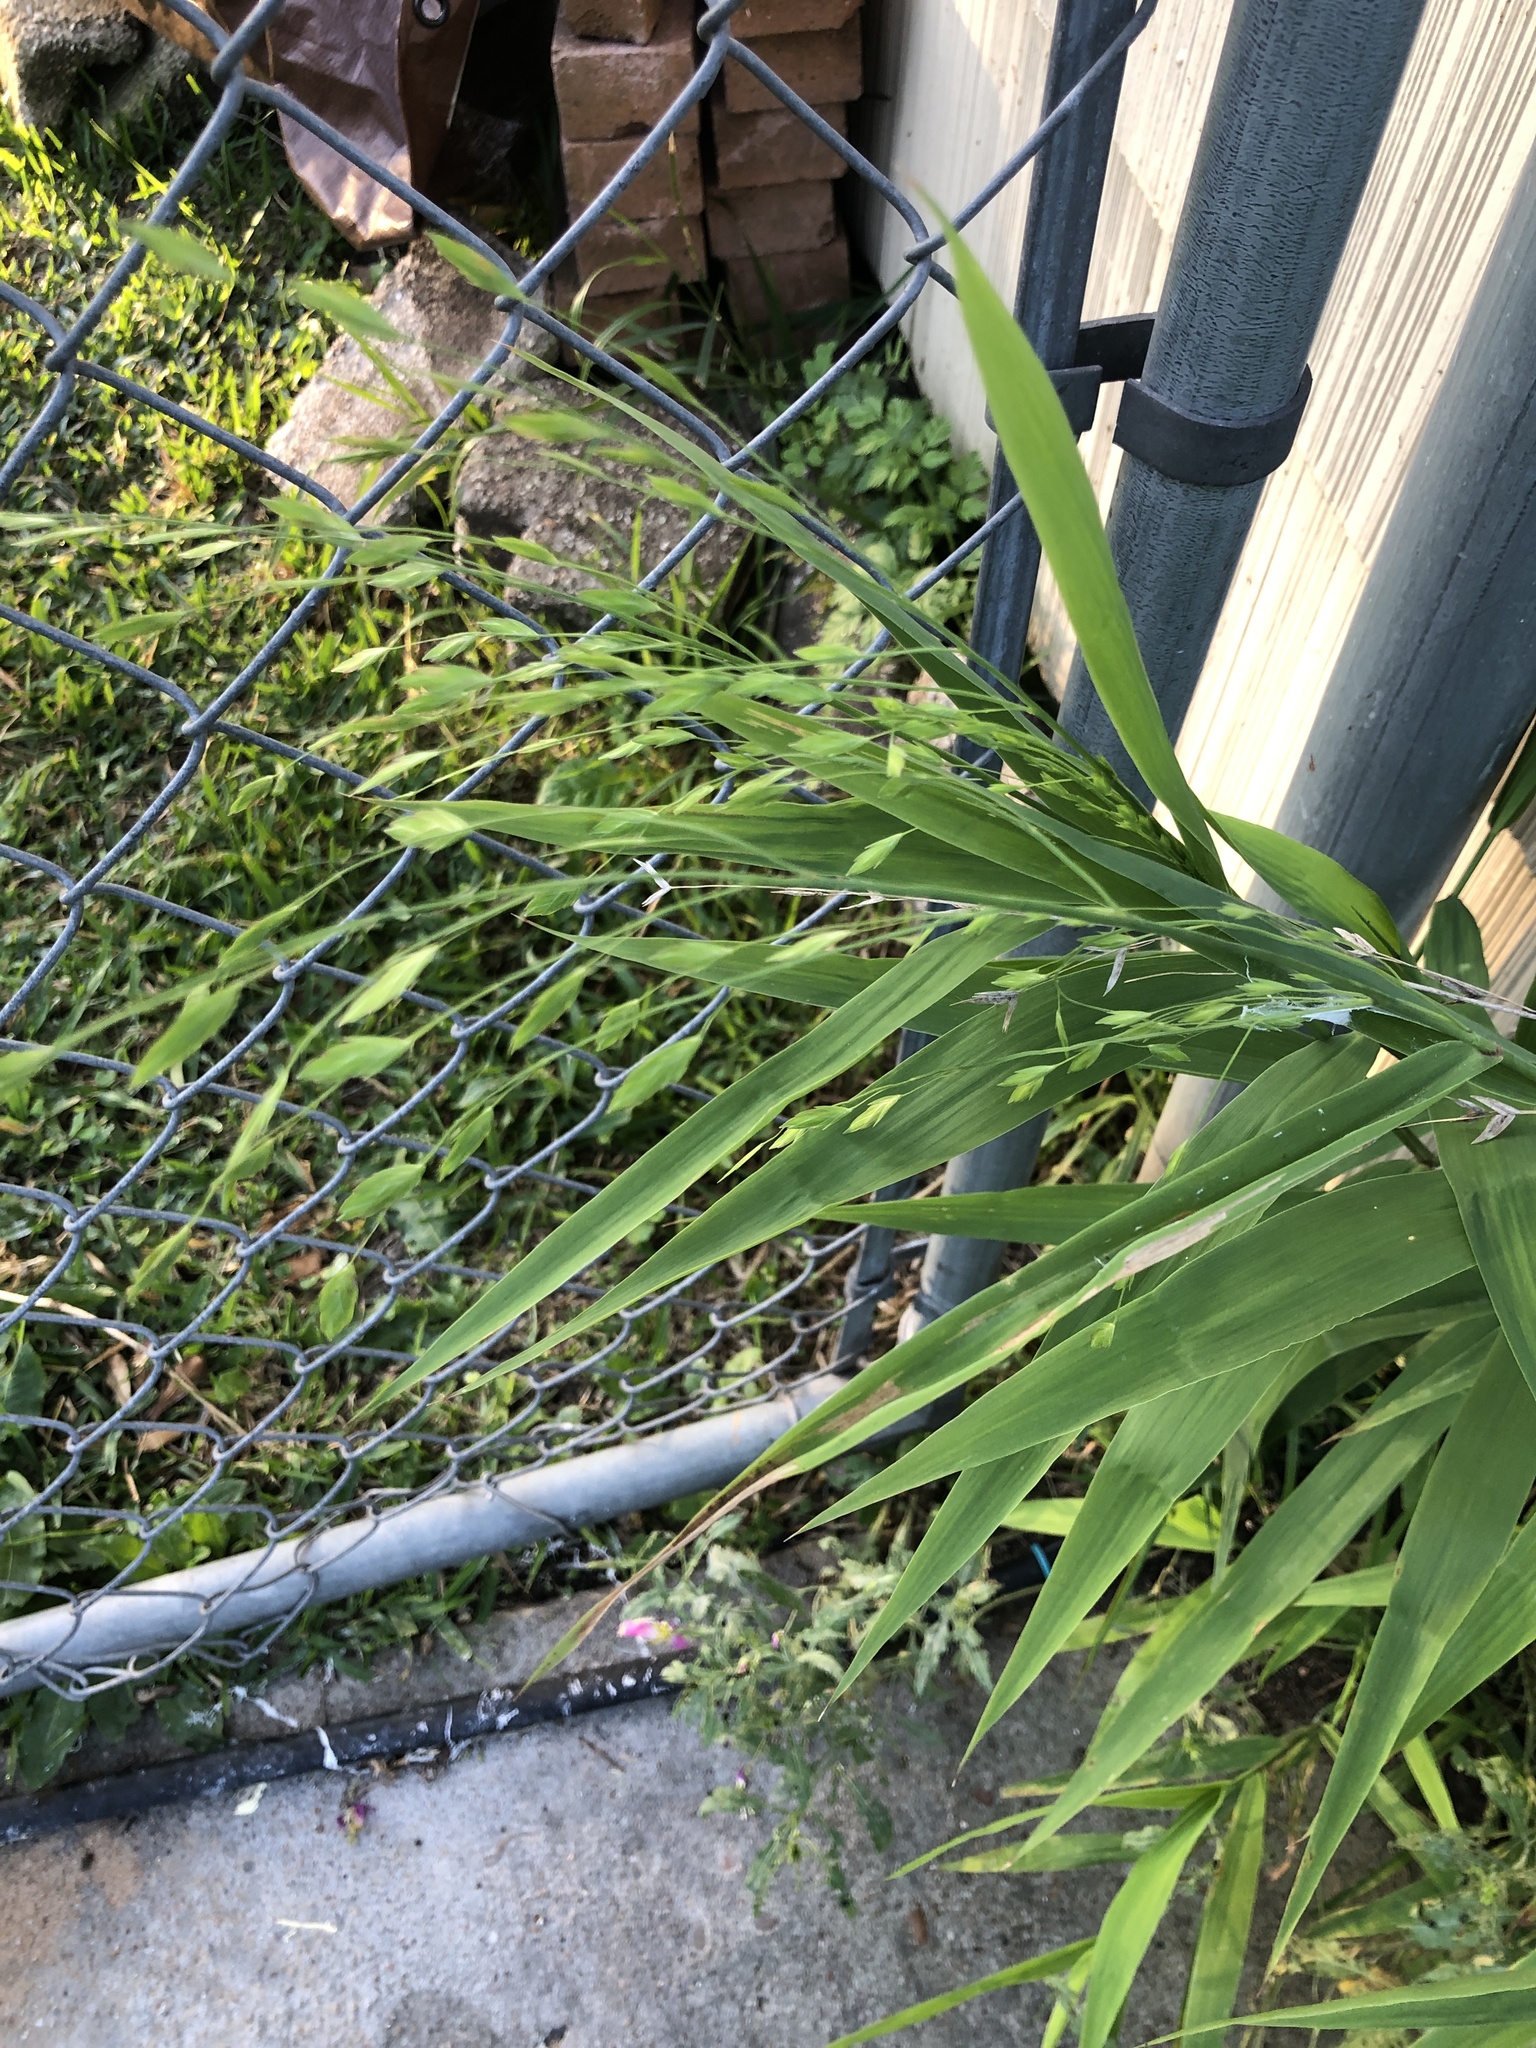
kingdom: Plantae
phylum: Tracheophyta
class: Liliopsida
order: Poales
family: Poaceae
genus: Chasmanthium
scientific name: Chasmanthium latifolium
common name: Broad-leaved chasmanthium
